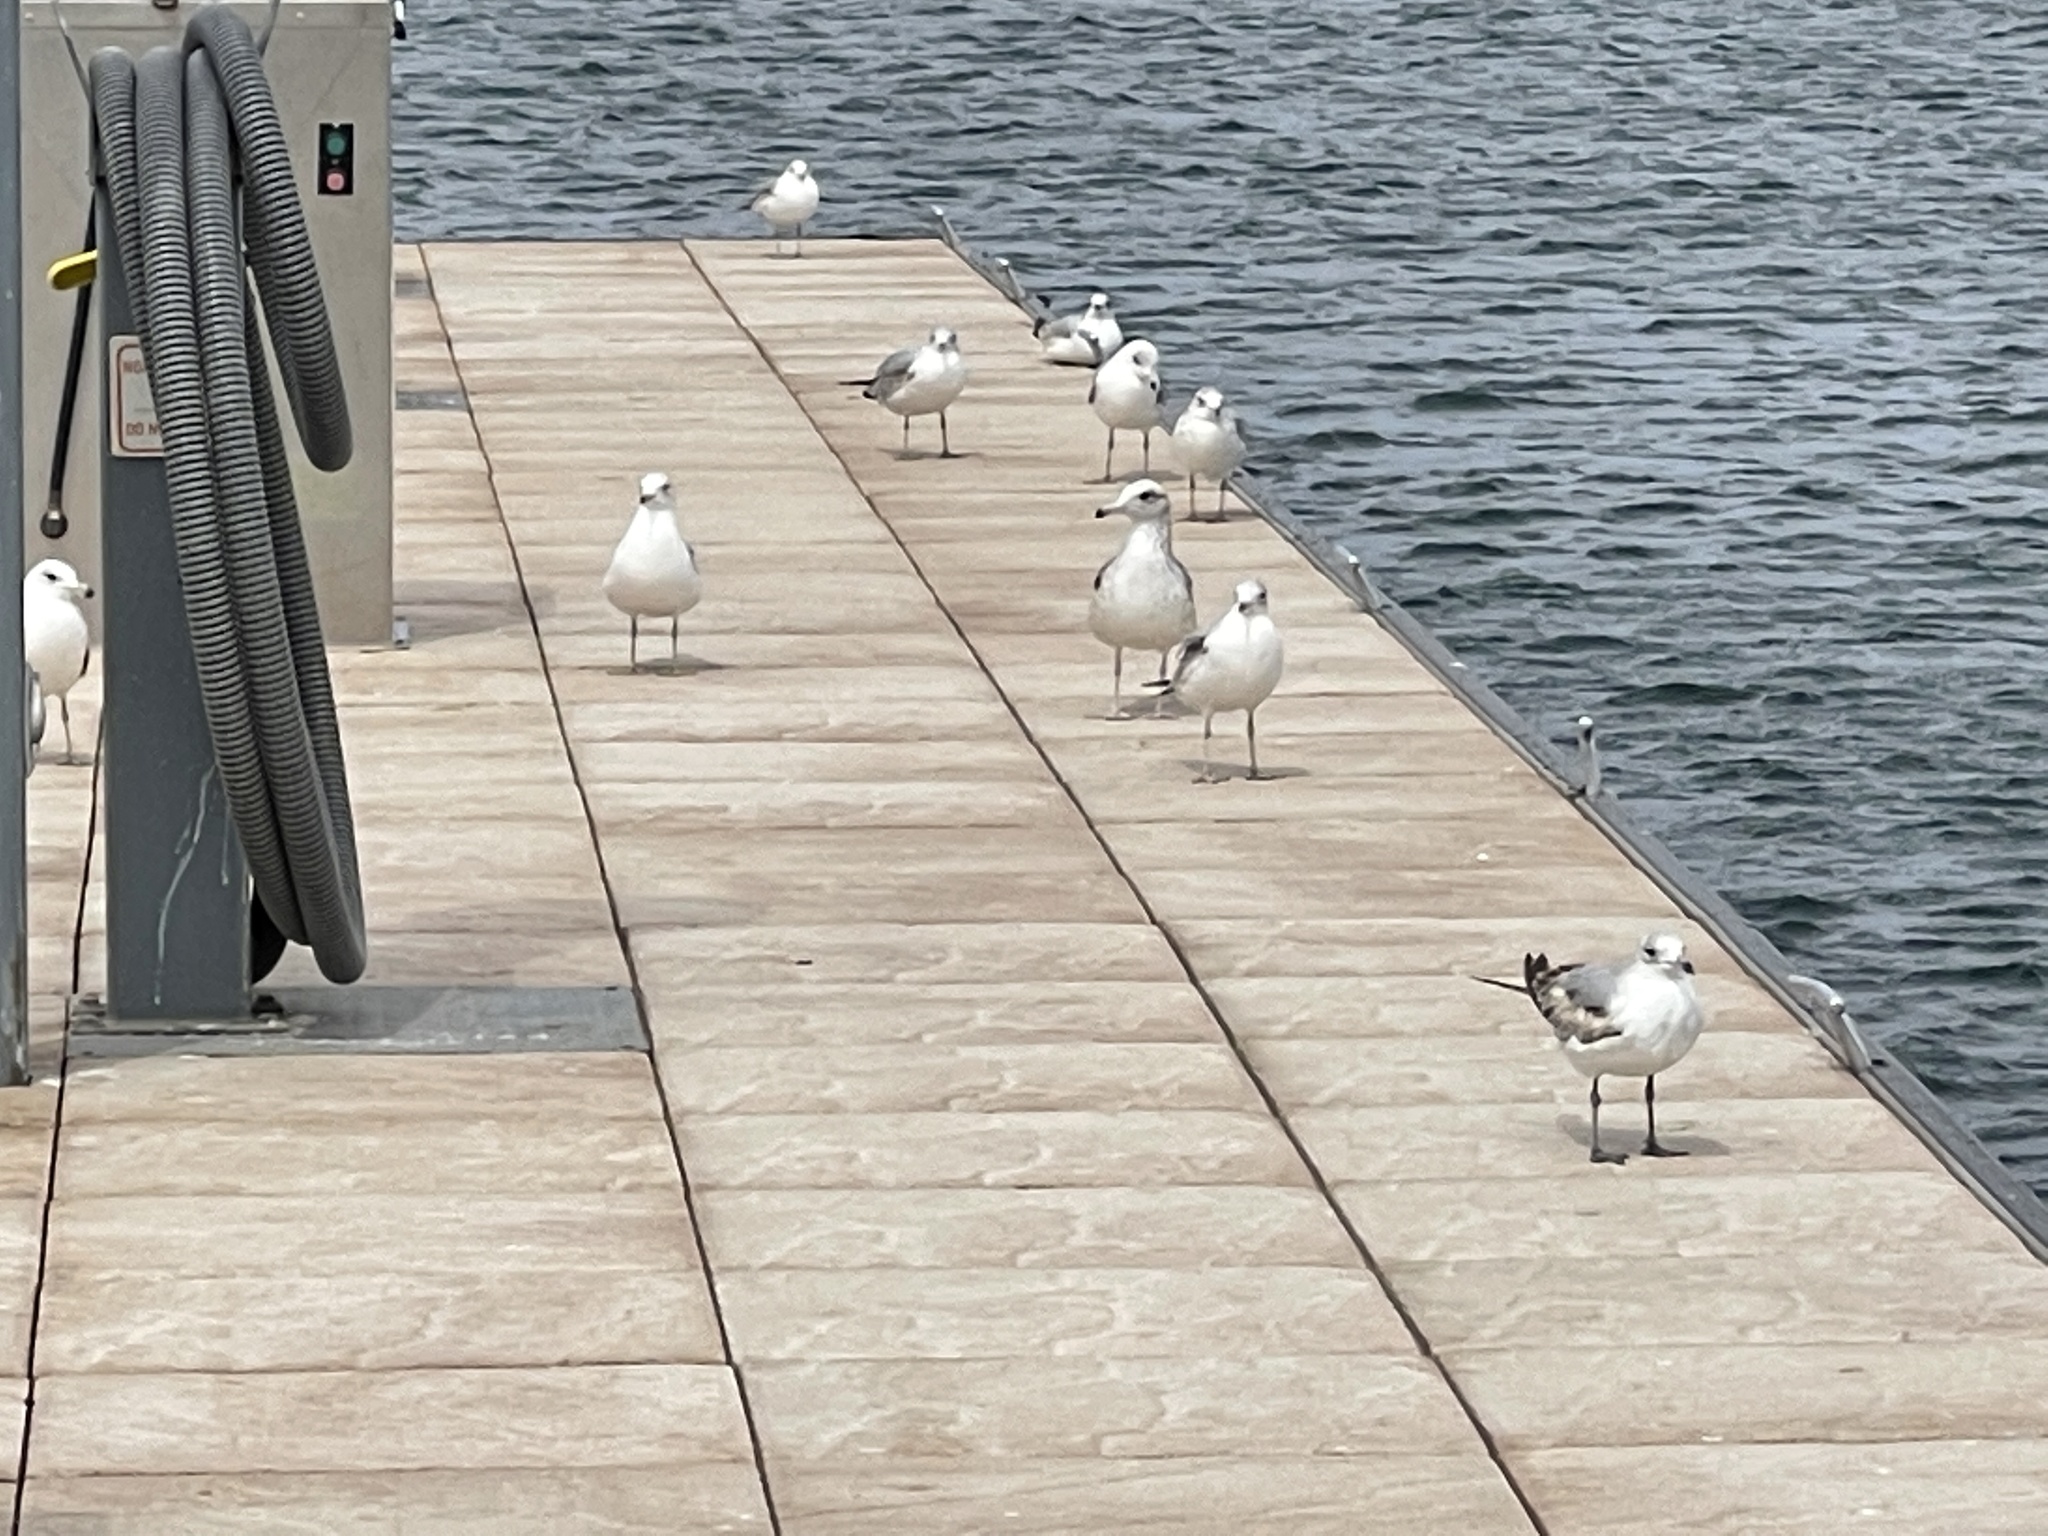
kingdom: Animalia
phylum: Chordata
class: Aves
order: Charadriiformes
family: Laridae
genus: Larus
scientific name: Larus delawarensis
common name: Ring-billed gull
